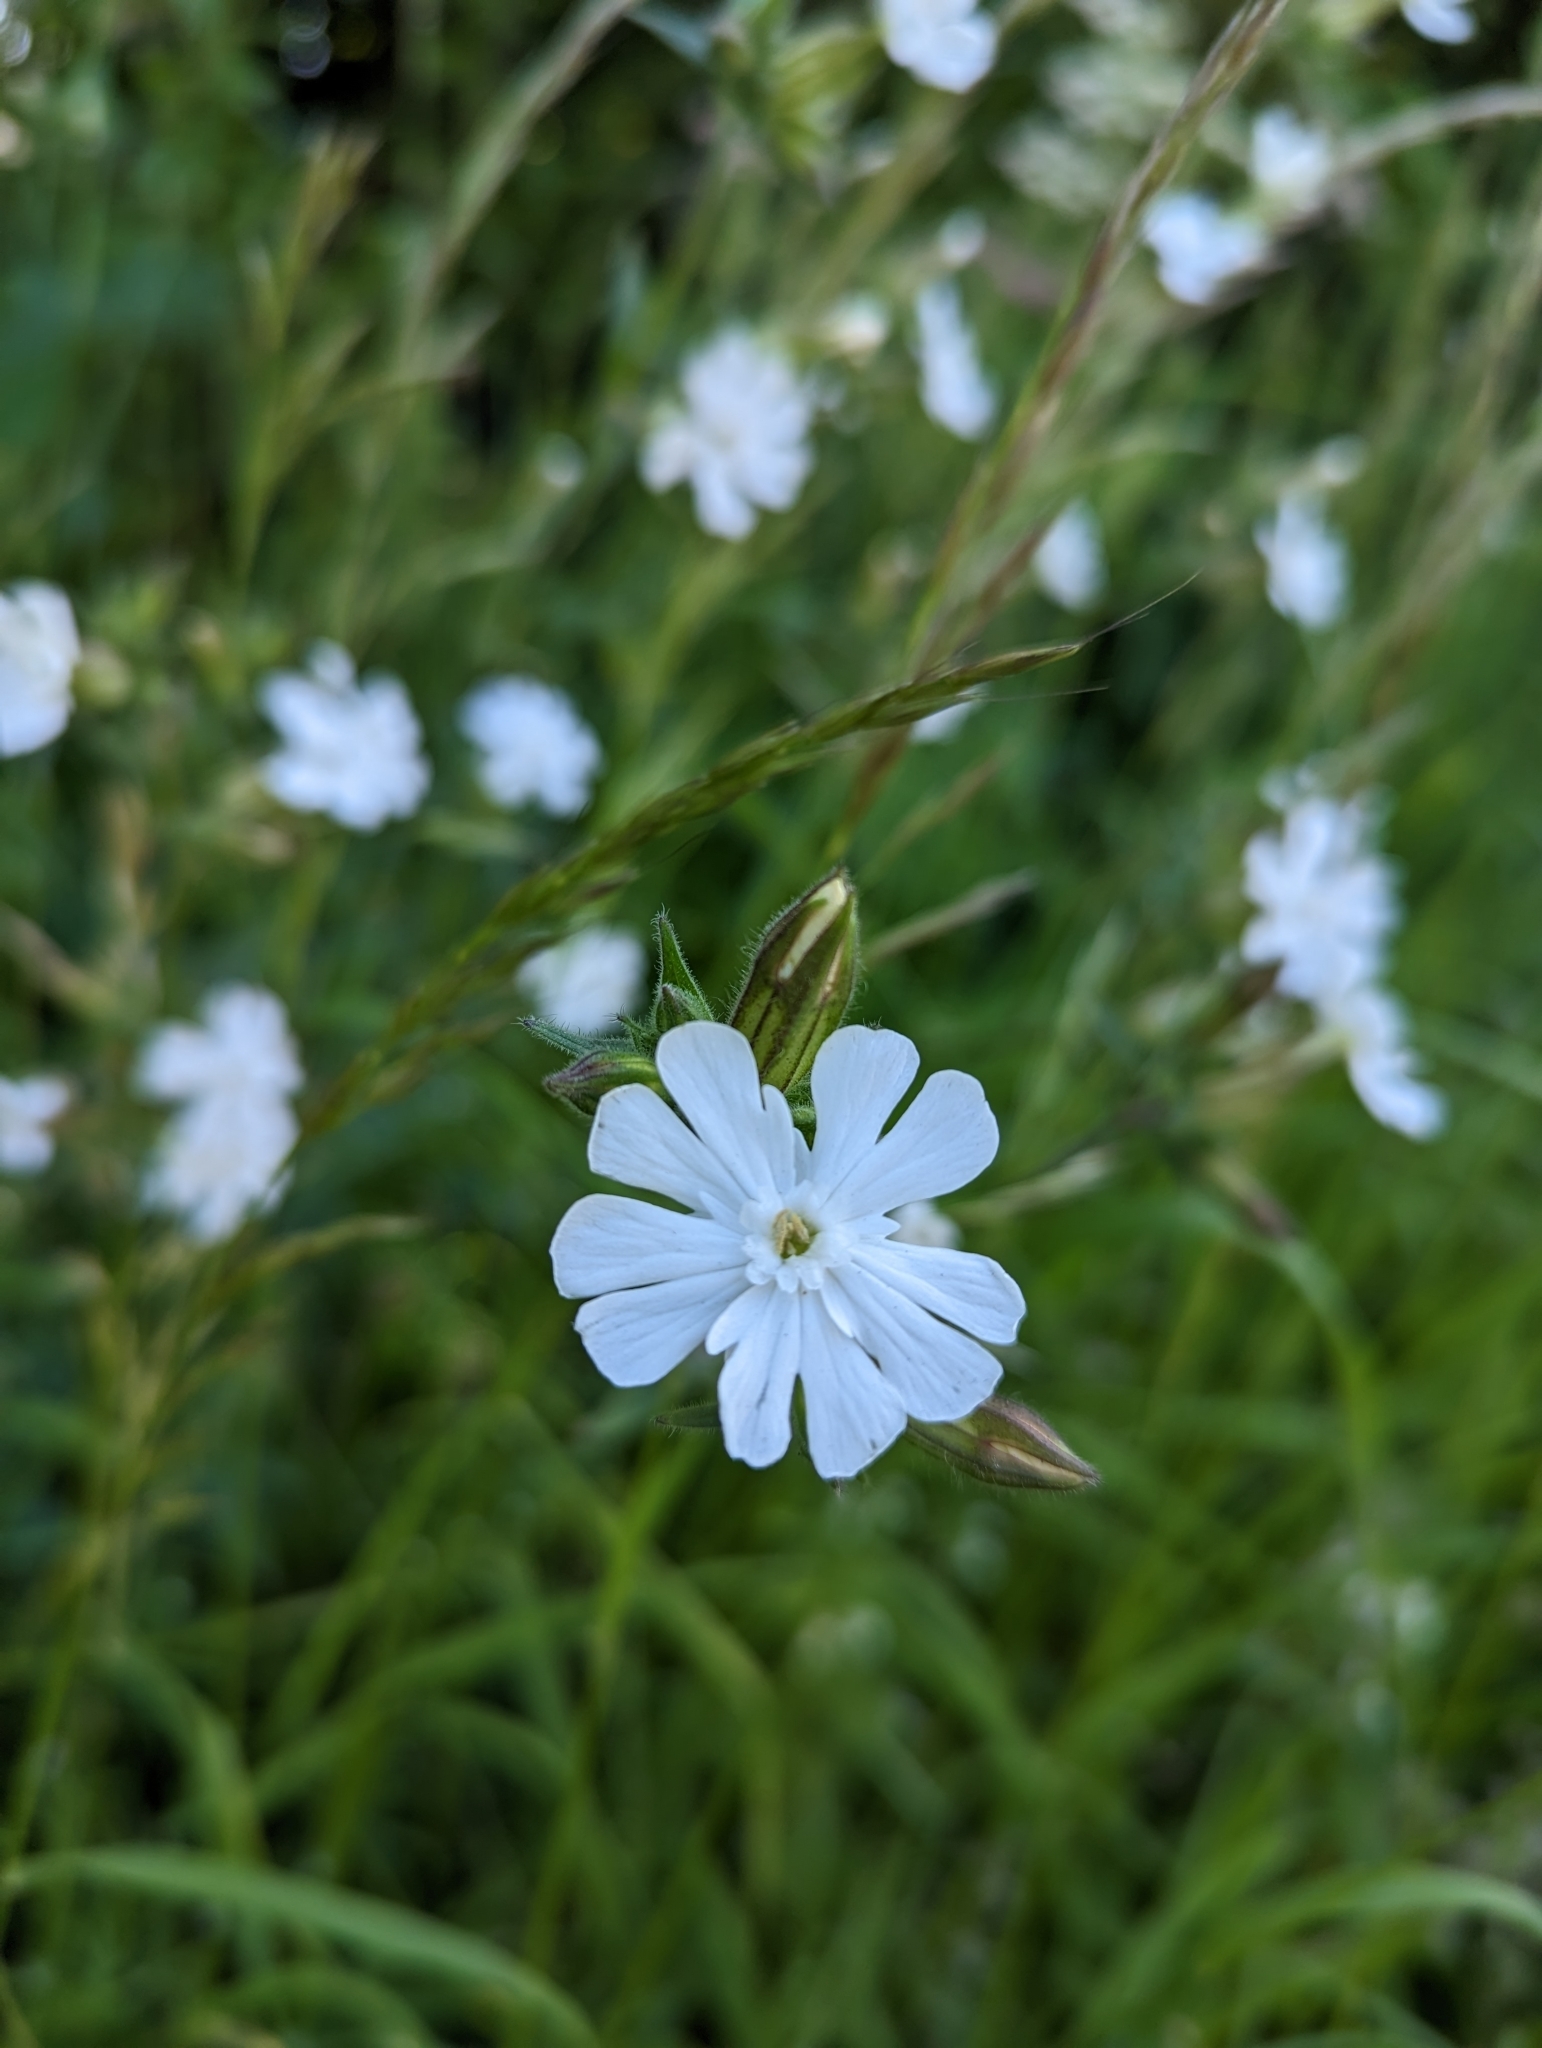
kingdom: Plantae
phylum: Tracheophyta
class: Magnoliopsida
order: Caryophyllales
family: Caryophyllaceae
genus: Silene
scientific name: Silene latifolia
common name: White campion
